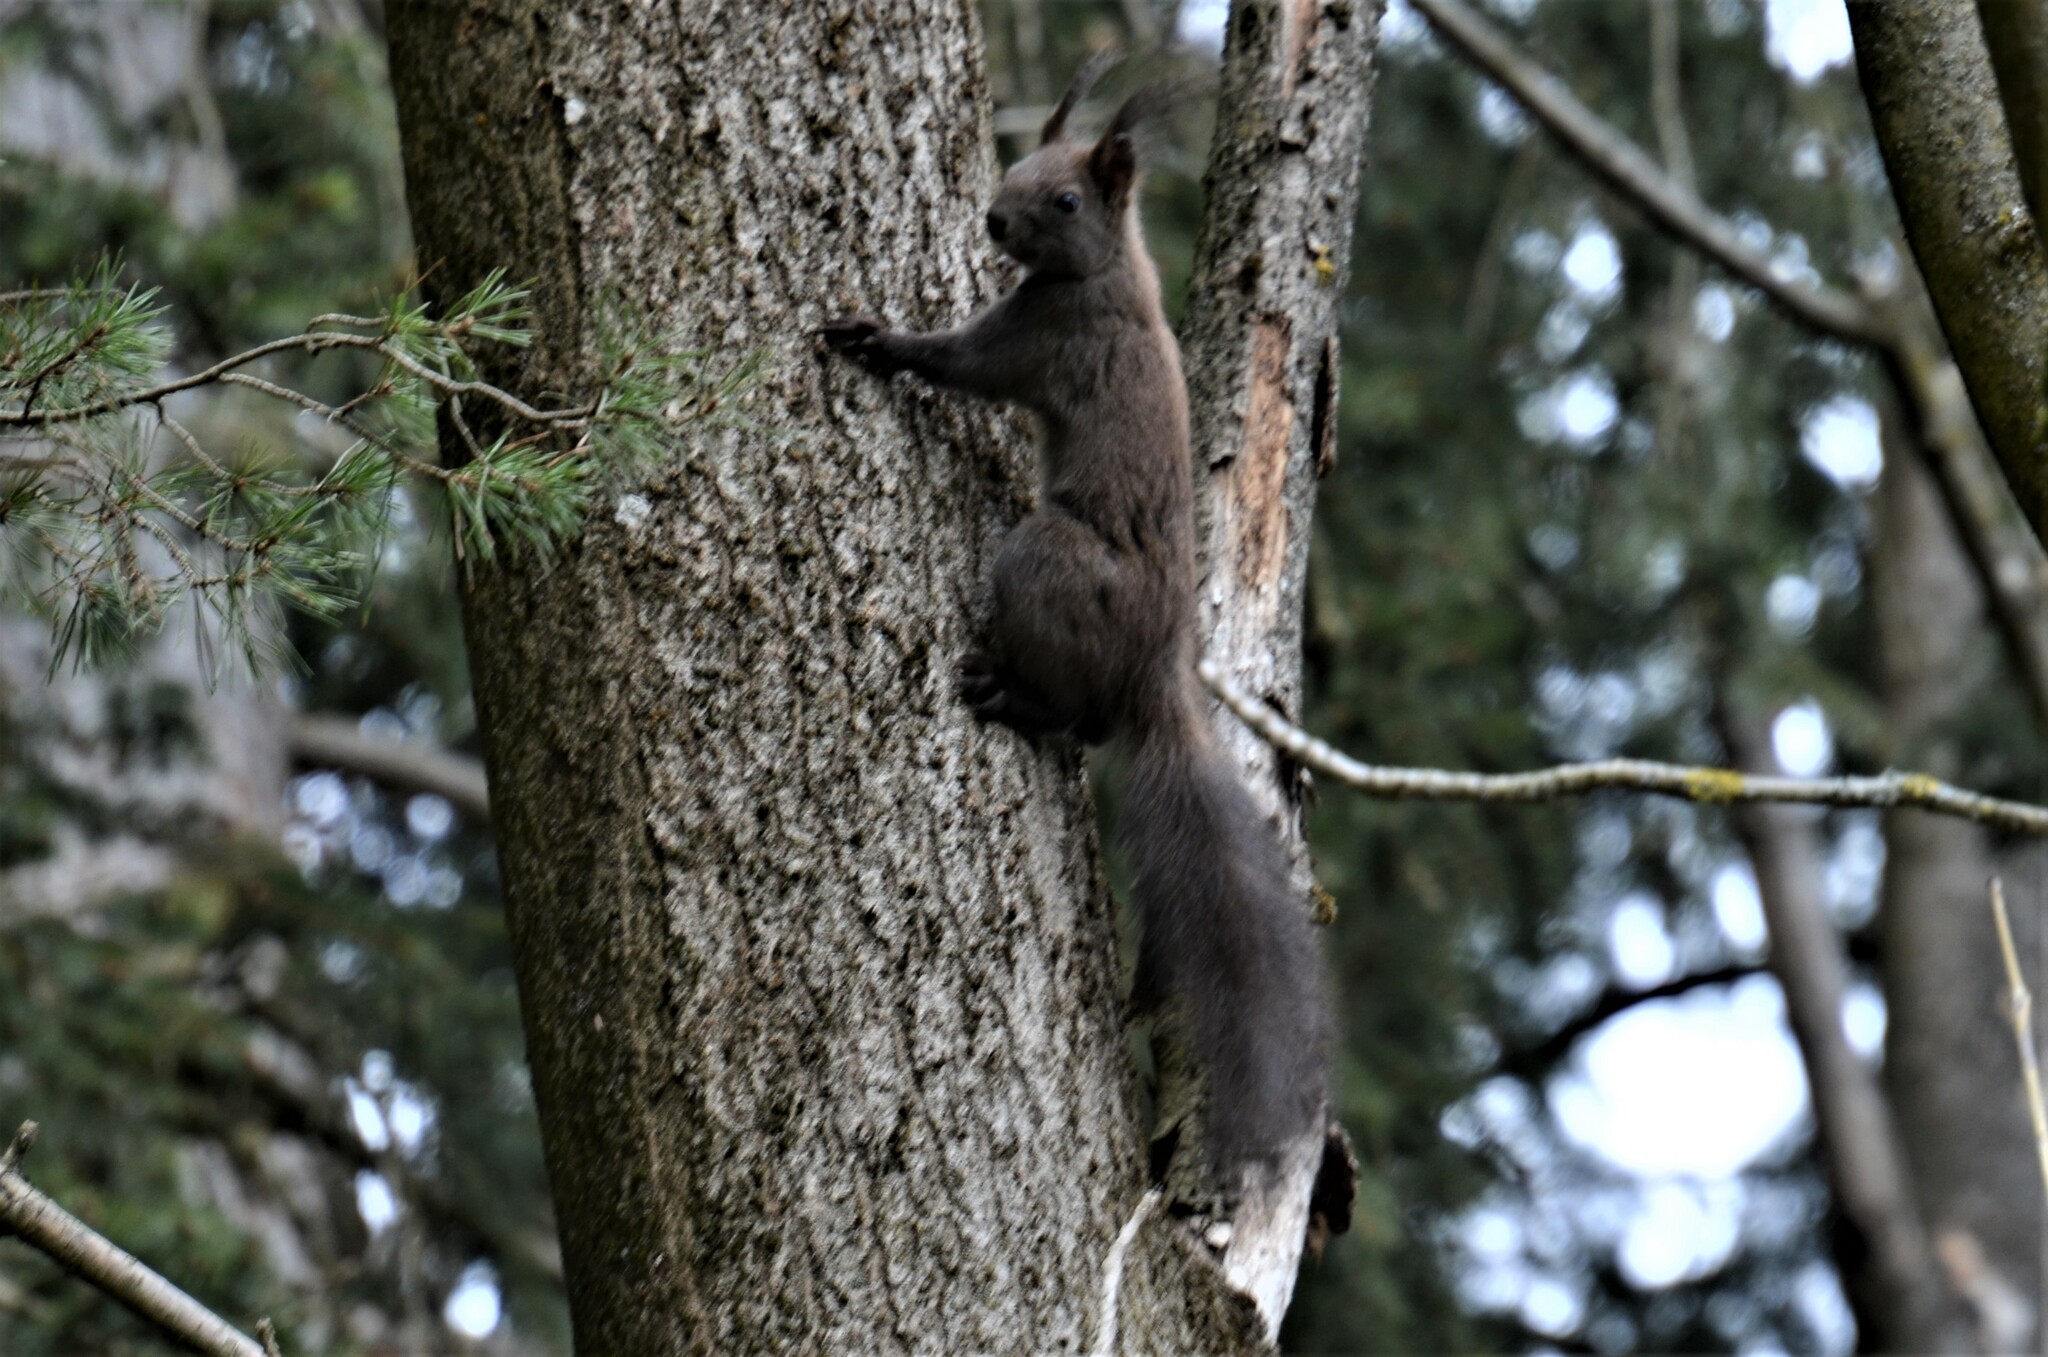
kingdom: Animalia
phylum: Chordata
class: Mammalia
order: Rodentia
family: Sciuridae
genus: Sciurus
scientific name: Sciurus vulgaris
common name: Eurasian red squirrel
